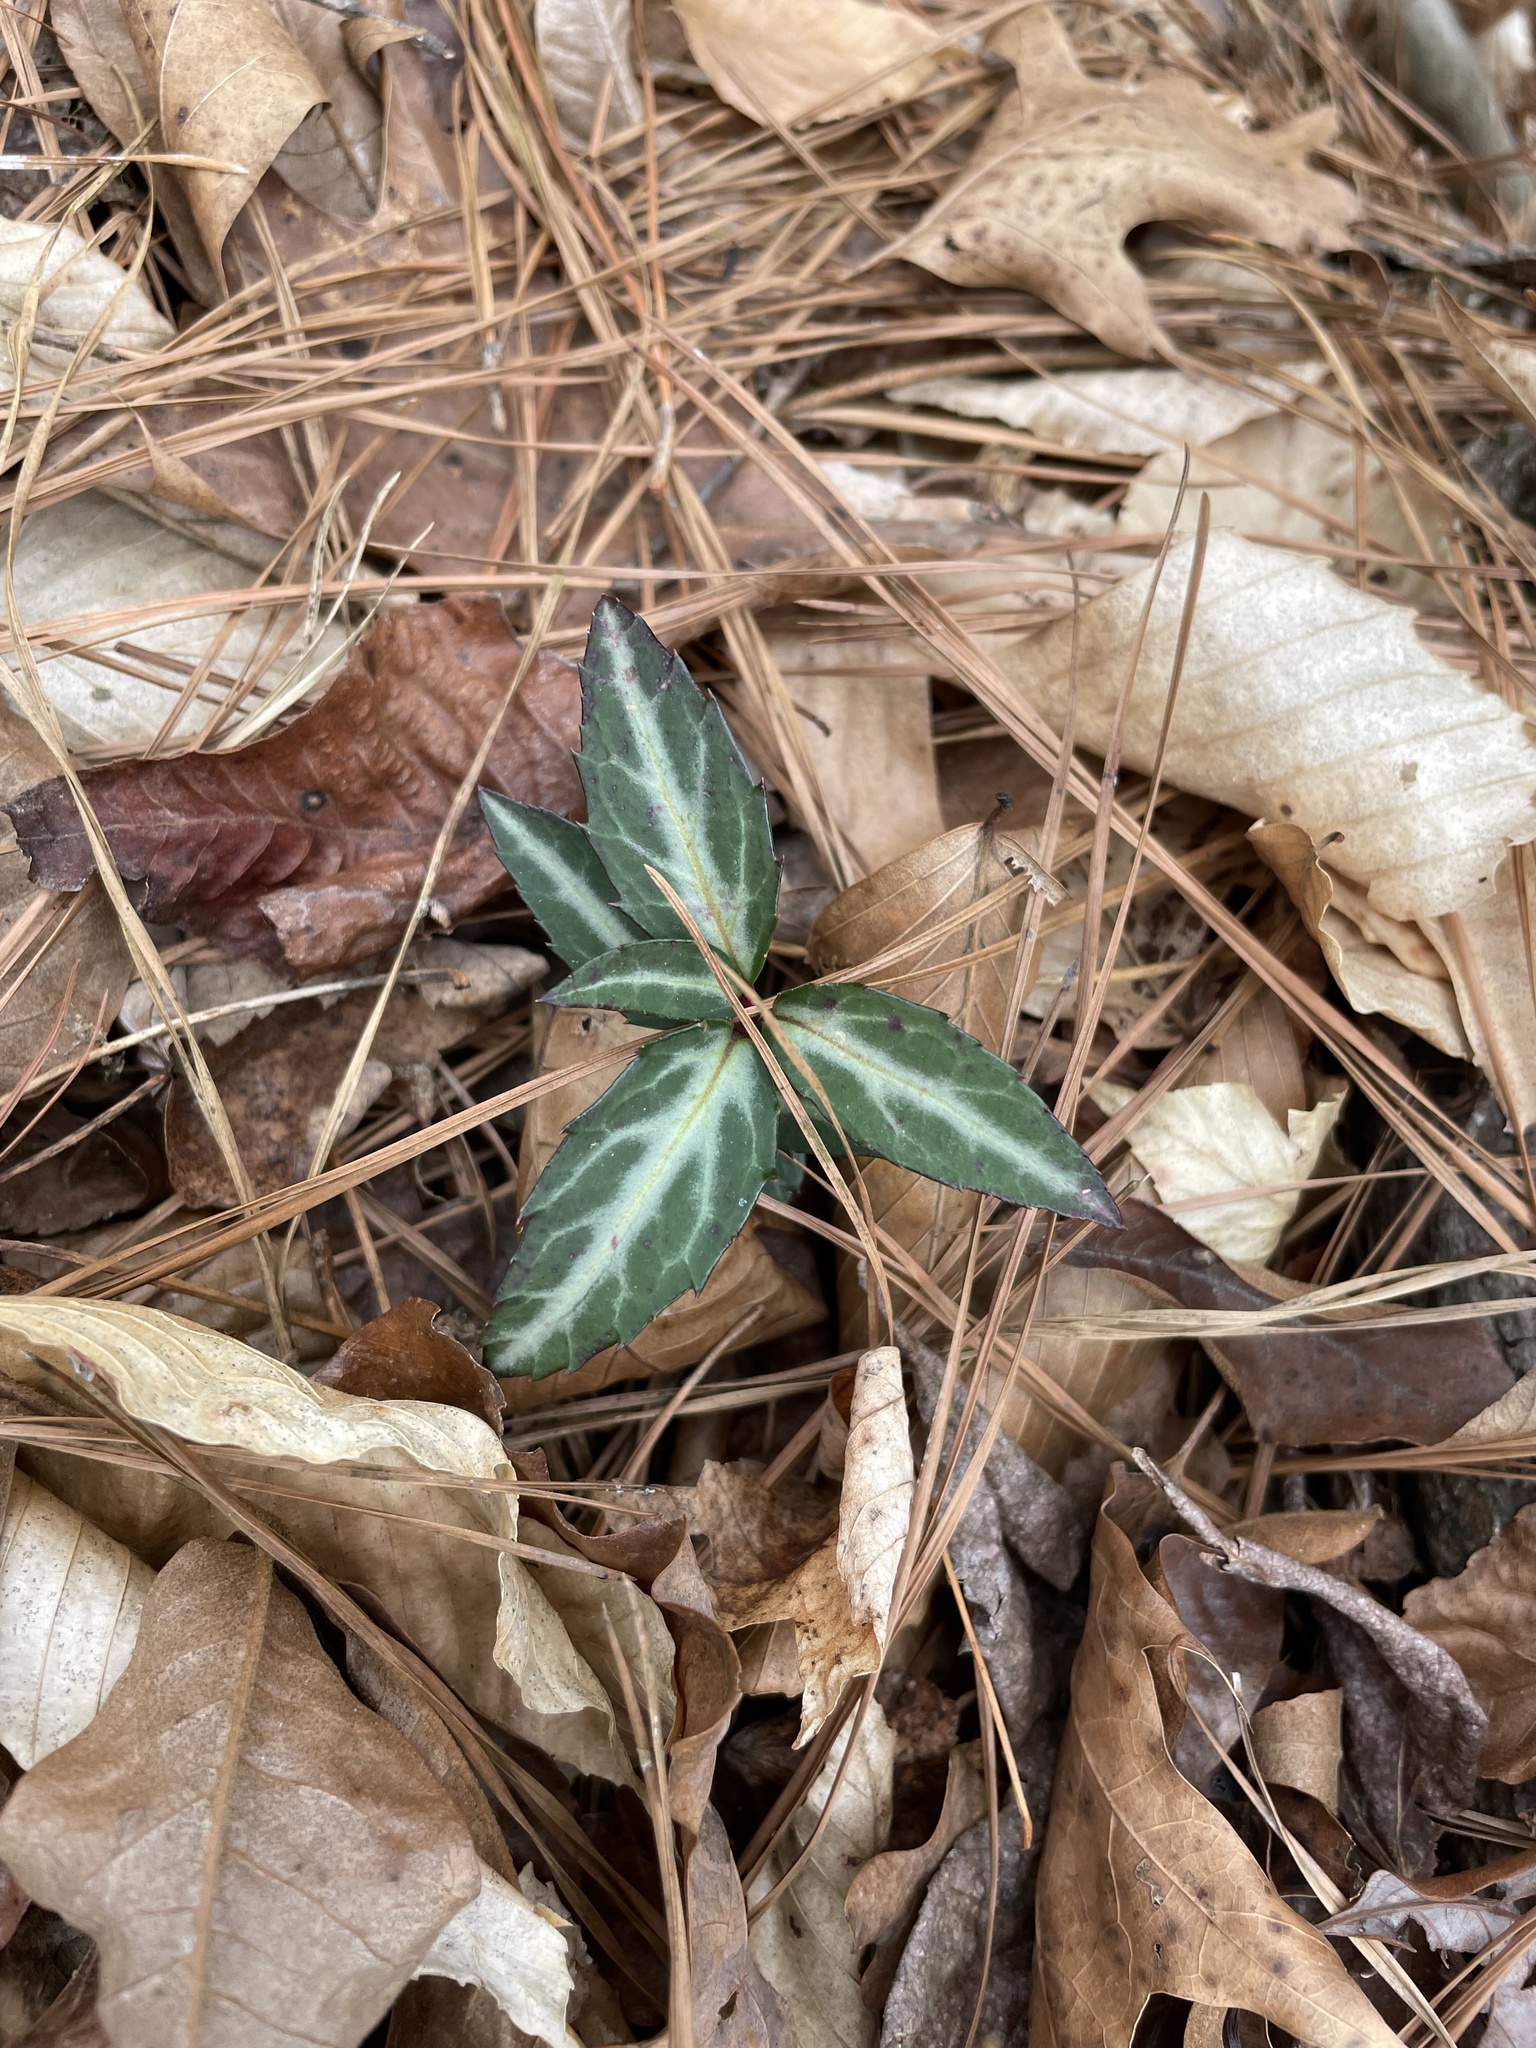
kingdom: Plantae
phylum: Tracheophyta
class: Magnoliopsida
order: Ericales
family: Ericaceae
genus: Chimaphila
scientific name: Chimaphila maculata
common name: Spotted pipsissewa
